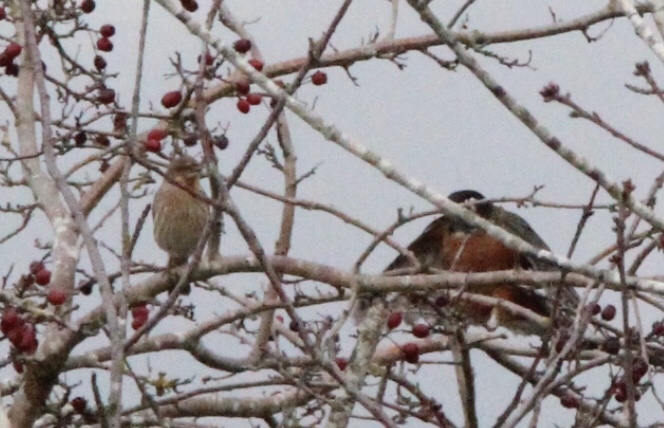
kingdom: Animalia
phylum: Chordata
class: Aves
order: Passeriformes
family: Fringillidae
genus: Haemorhous
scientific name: Haemorhous mexicanus
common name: House finch
